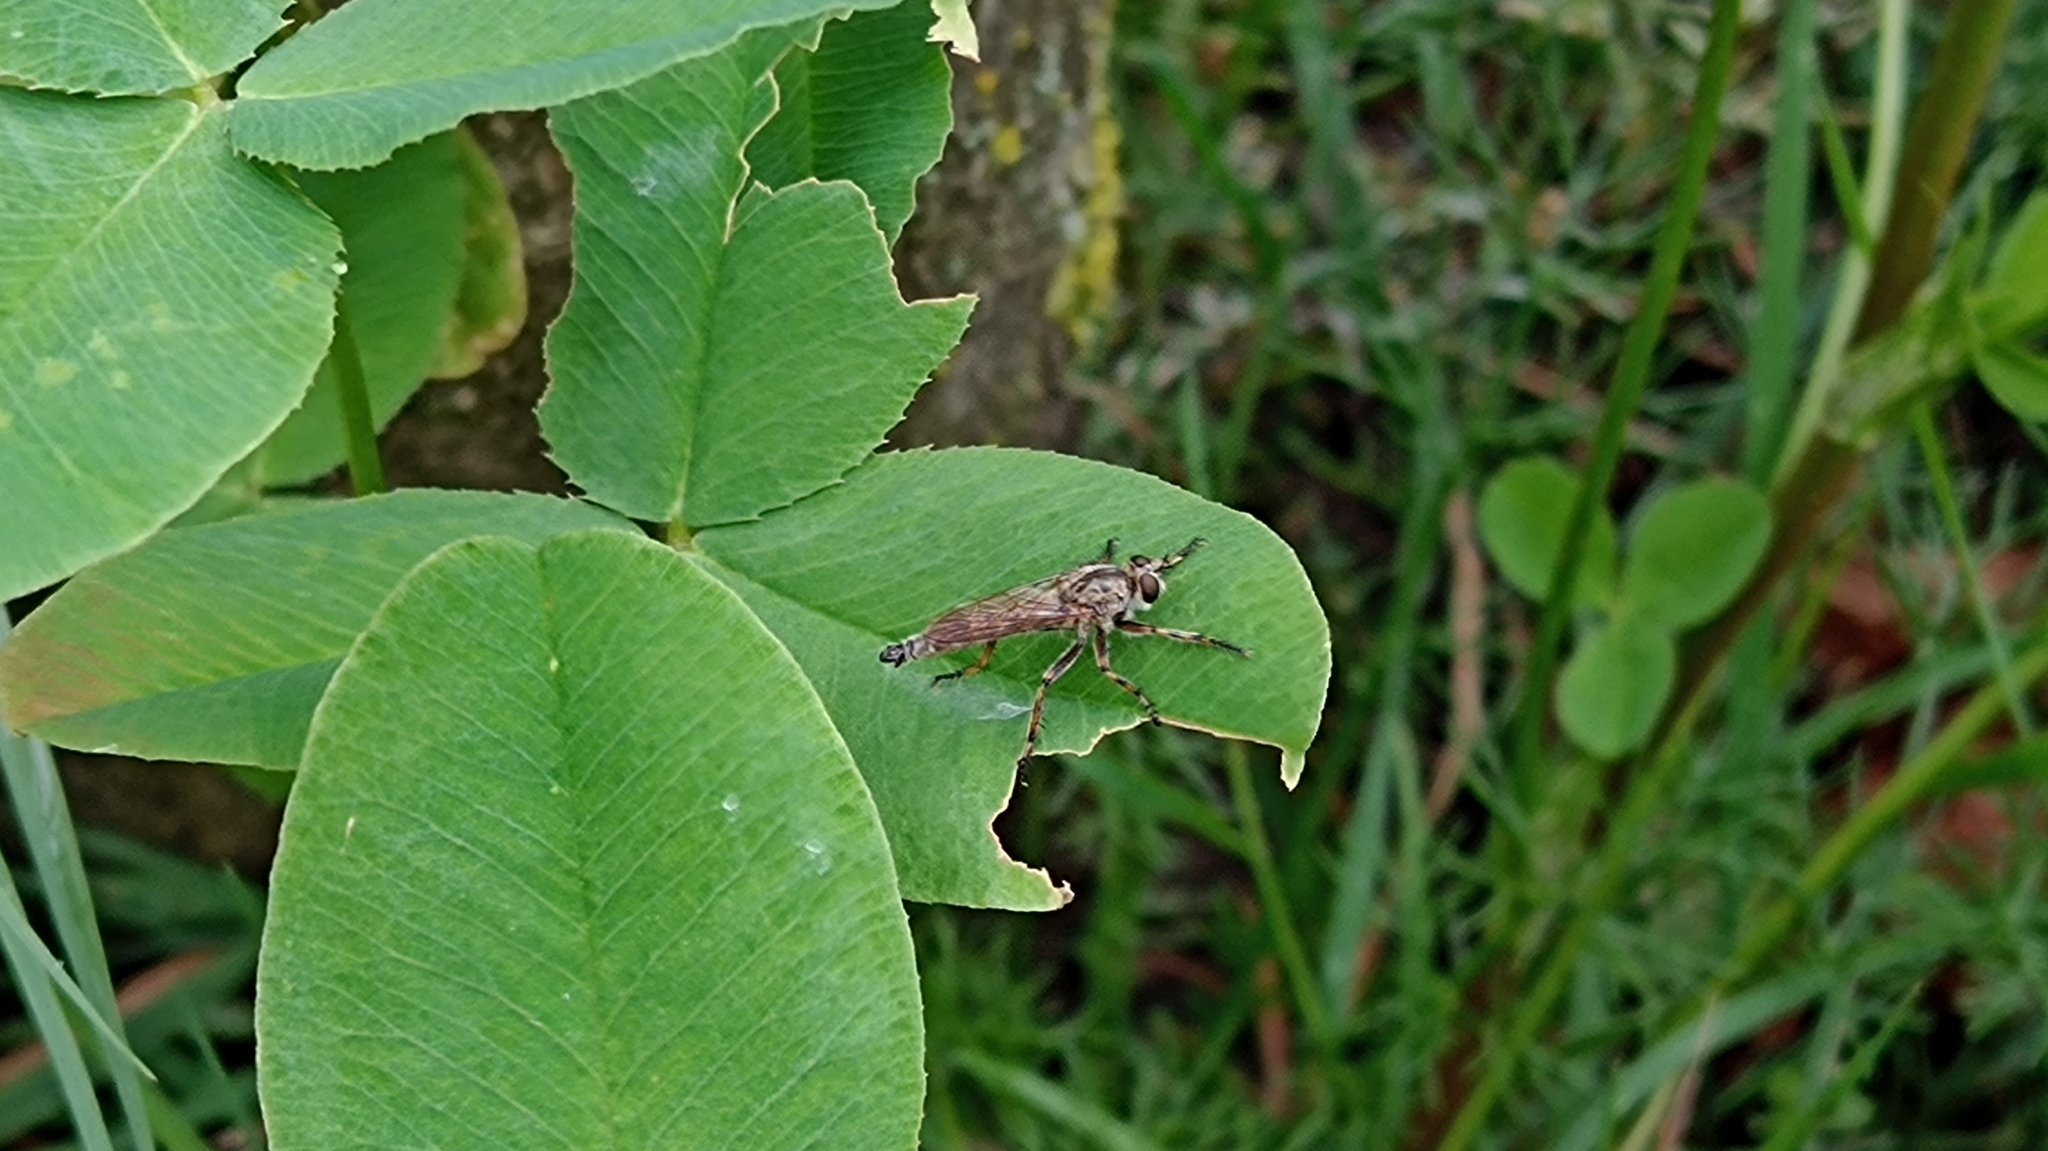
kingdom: Animalia
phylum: Arthropoda
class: Insecta
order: Diptera
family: Asilidae
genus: Epitriptus
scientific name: Epitriptus cingulatus
